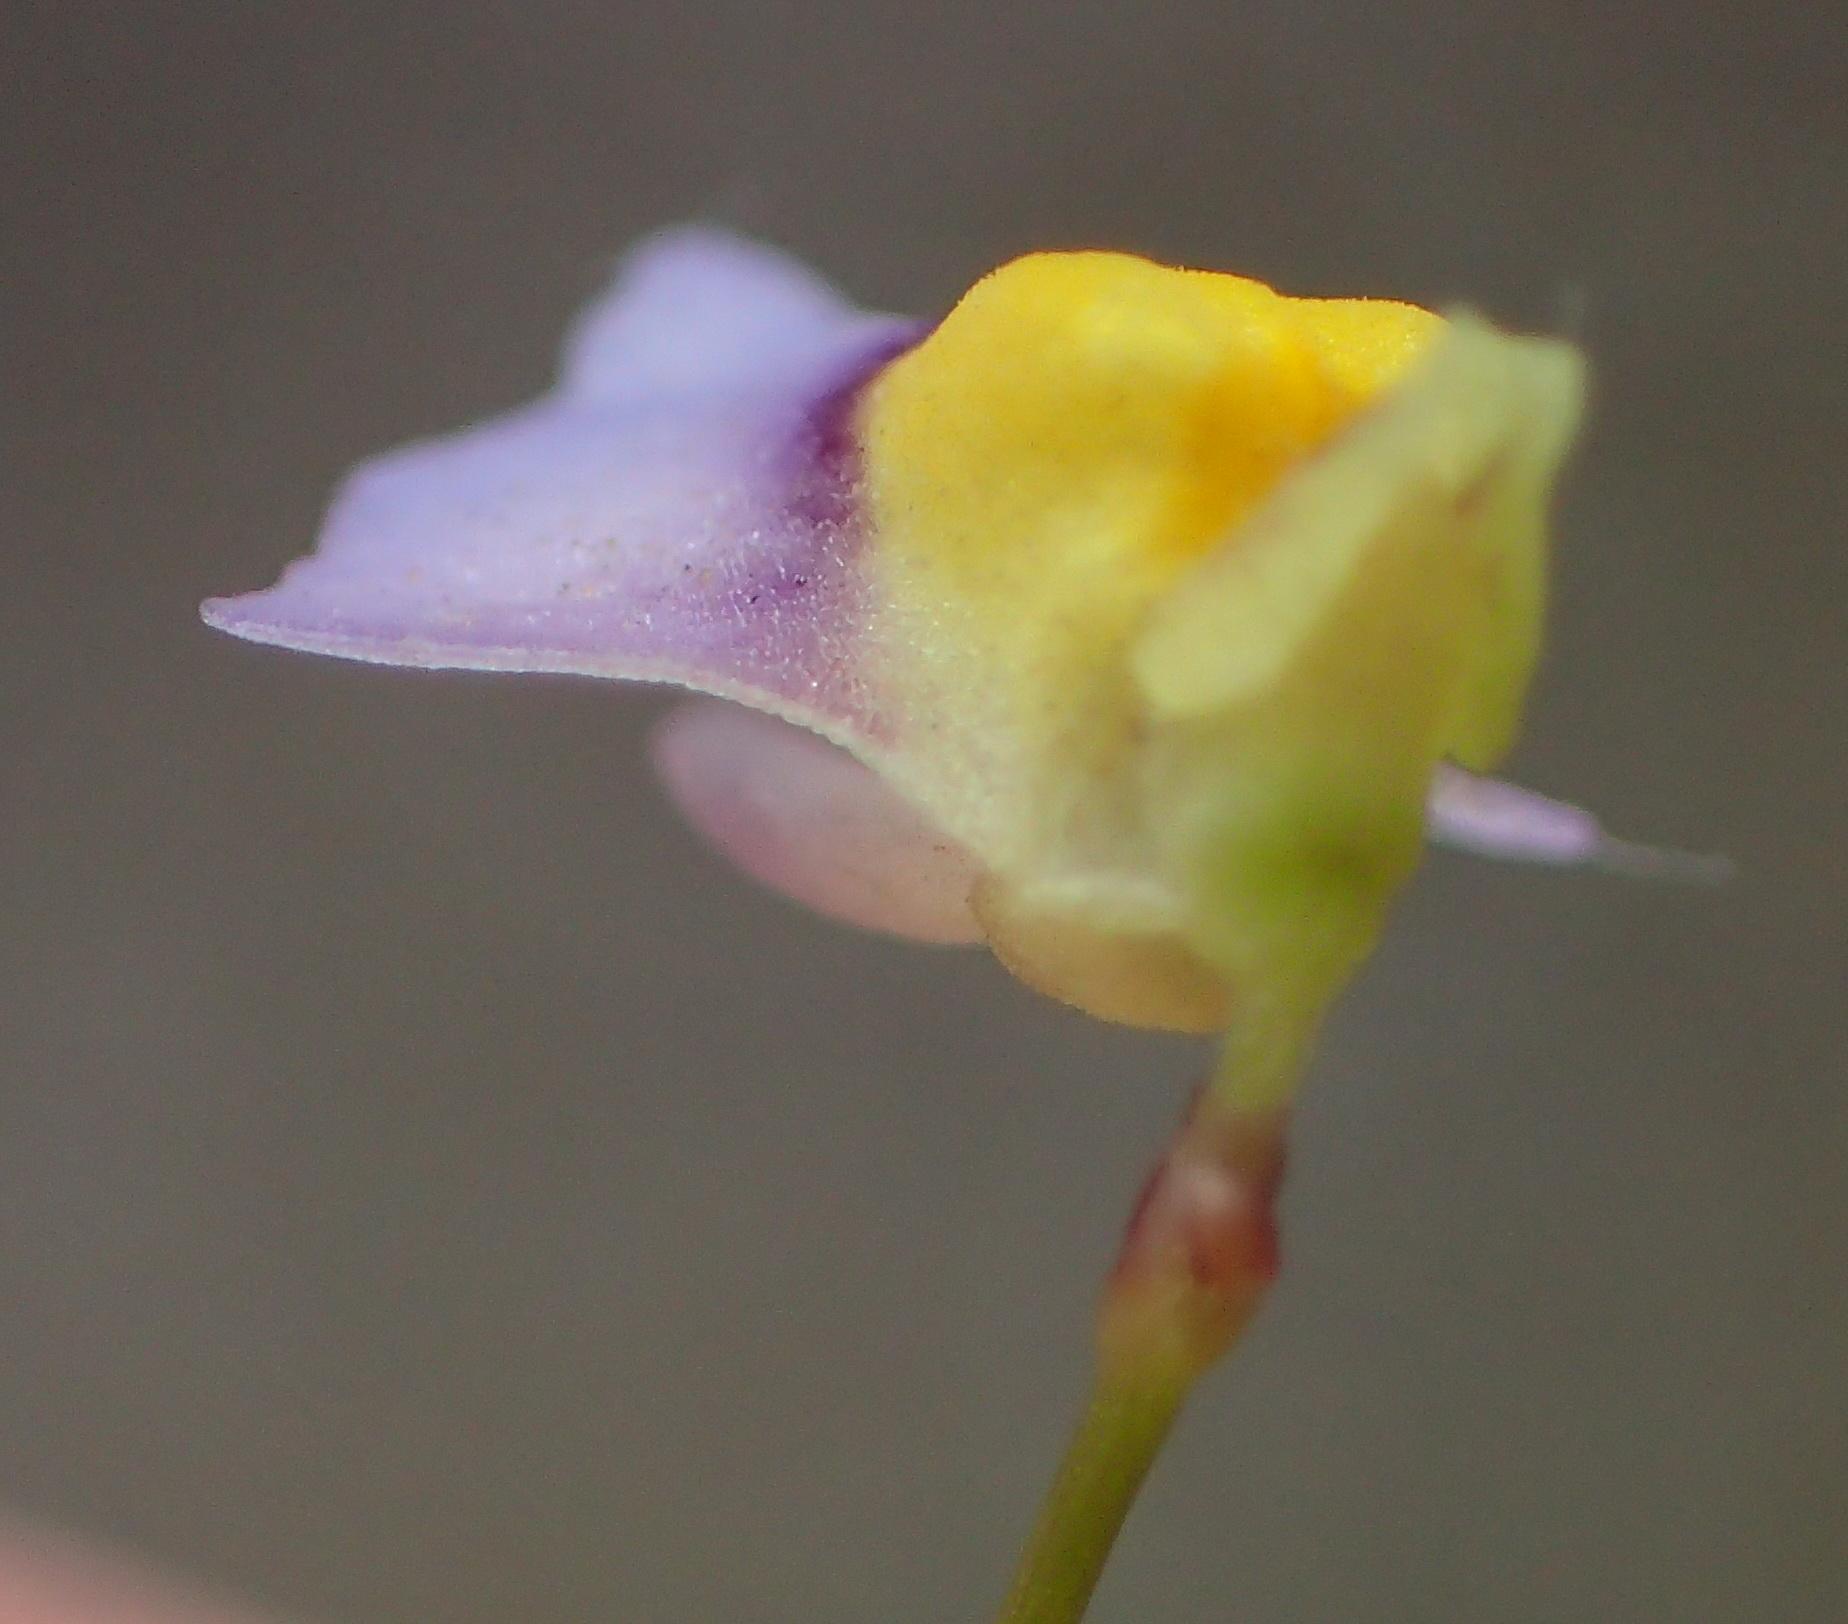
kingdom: Plantae
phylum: Tracheophyta
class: Magnoliopsida
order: Lamiales
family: Lentibulariaceae
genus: Utricularia
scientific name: Utricularia bisquamata
